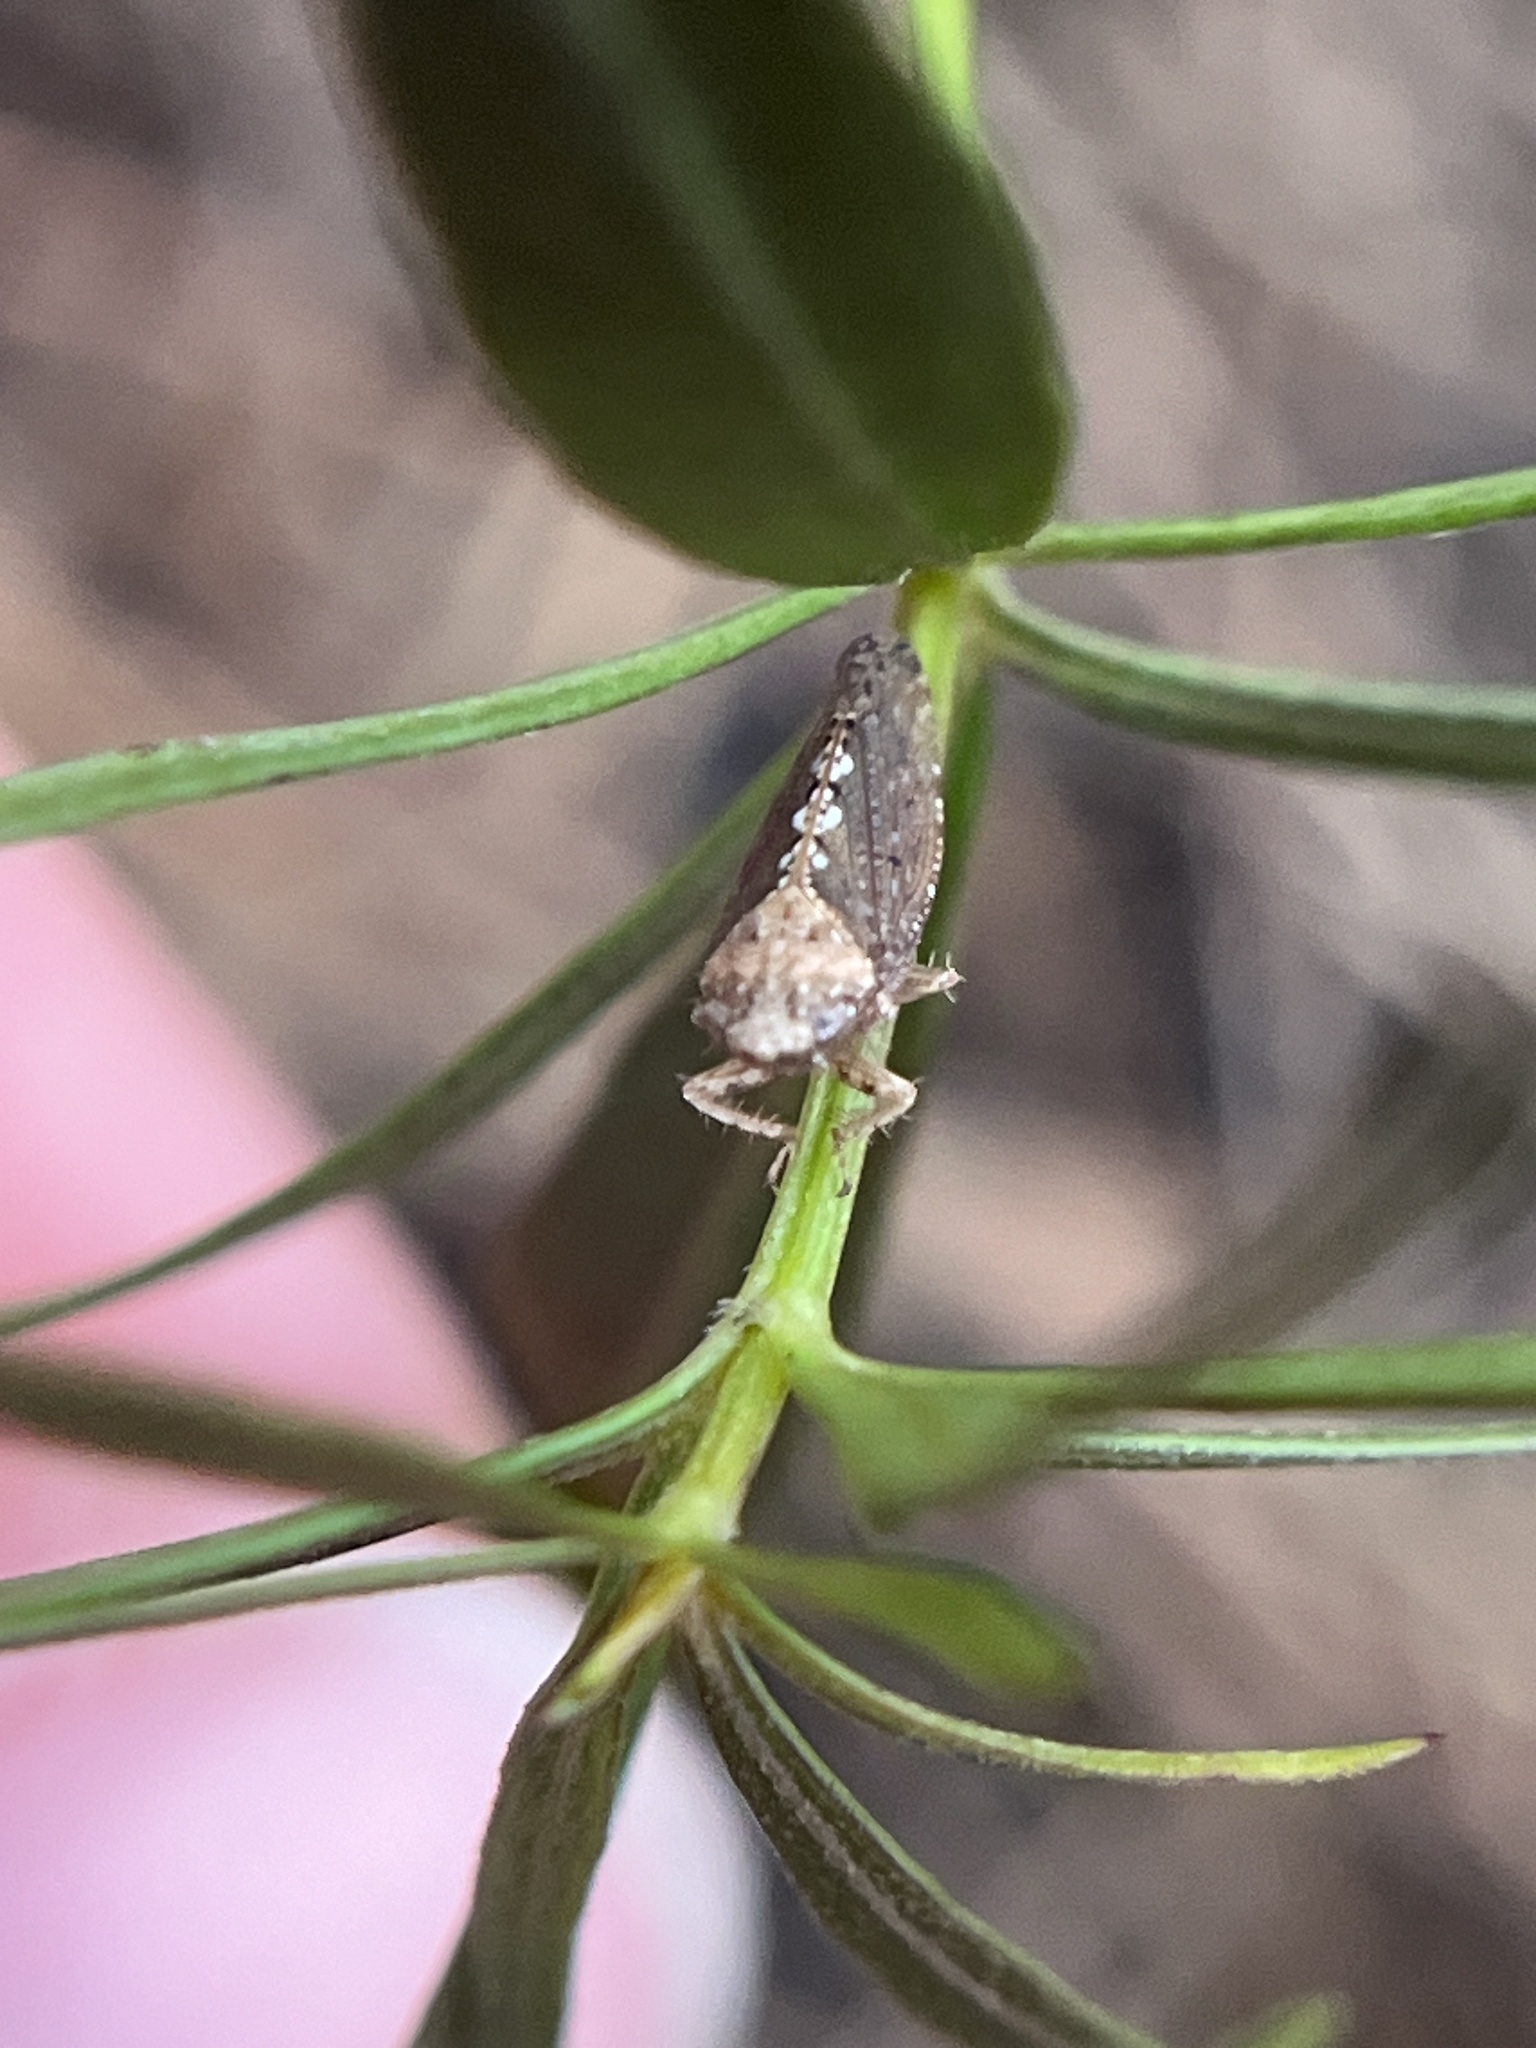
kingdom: Animalia
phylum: Arthropoda
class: Insecta
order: Hemiptera
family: Cicadellidae
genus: Excultanus
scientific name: Excultanus excultus
